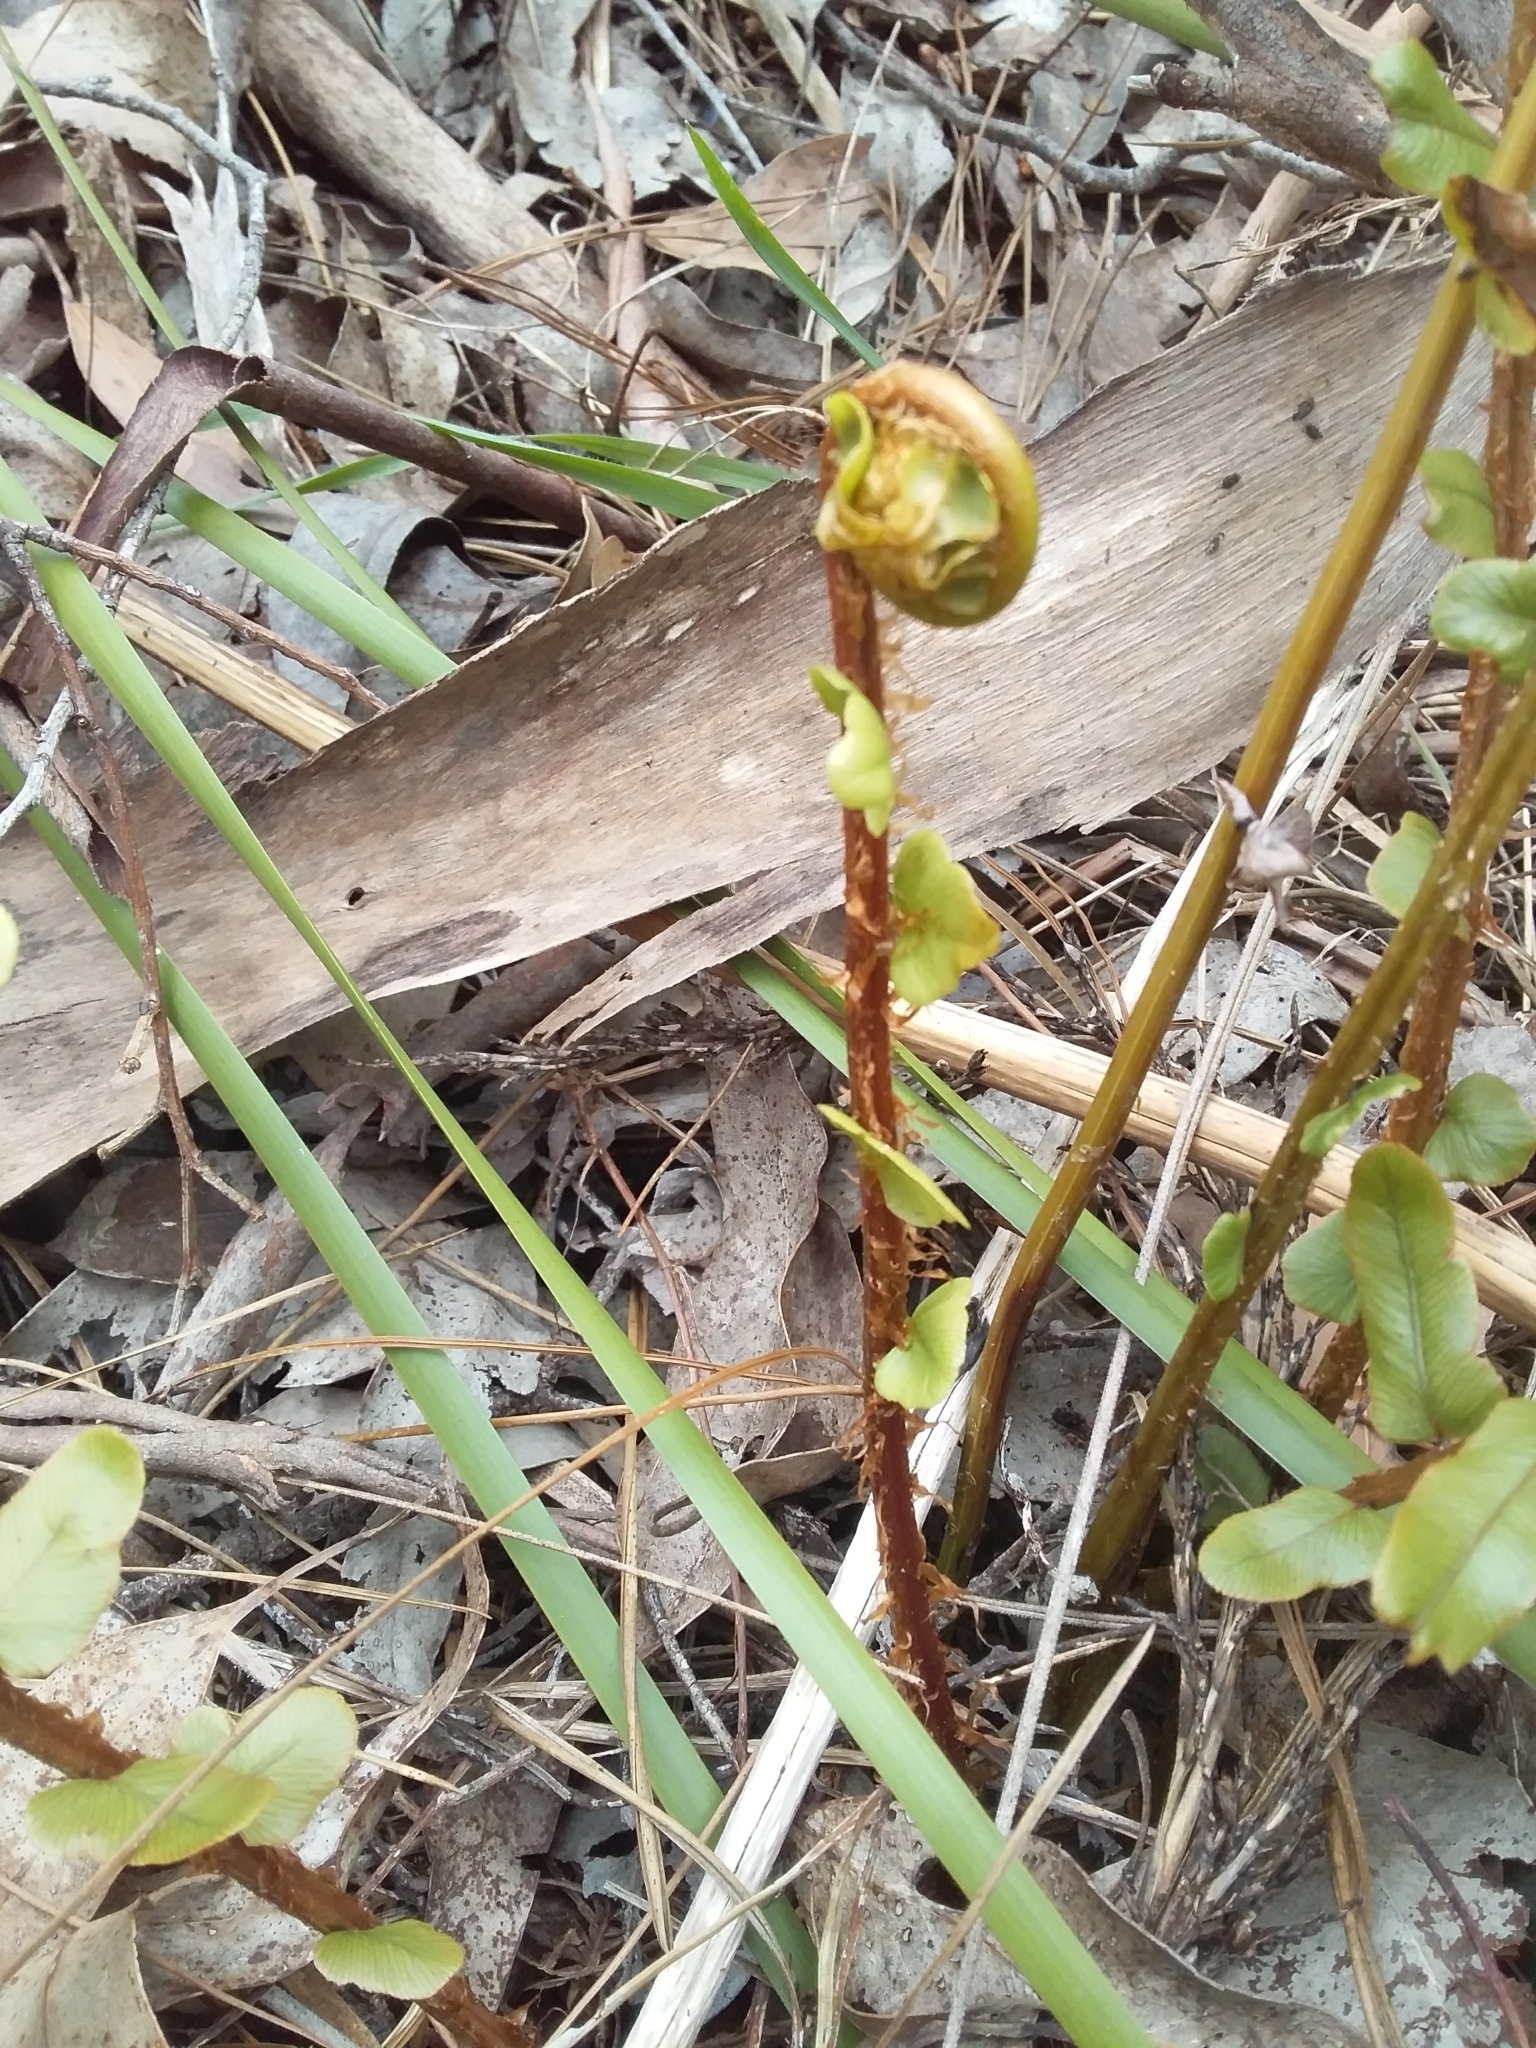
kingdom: Plantae
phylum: Tracheophyta
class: Polypodiopsida
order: Polypodiales
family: Blechnaceae
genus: Parablechnum
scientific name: Parablechnum minus
